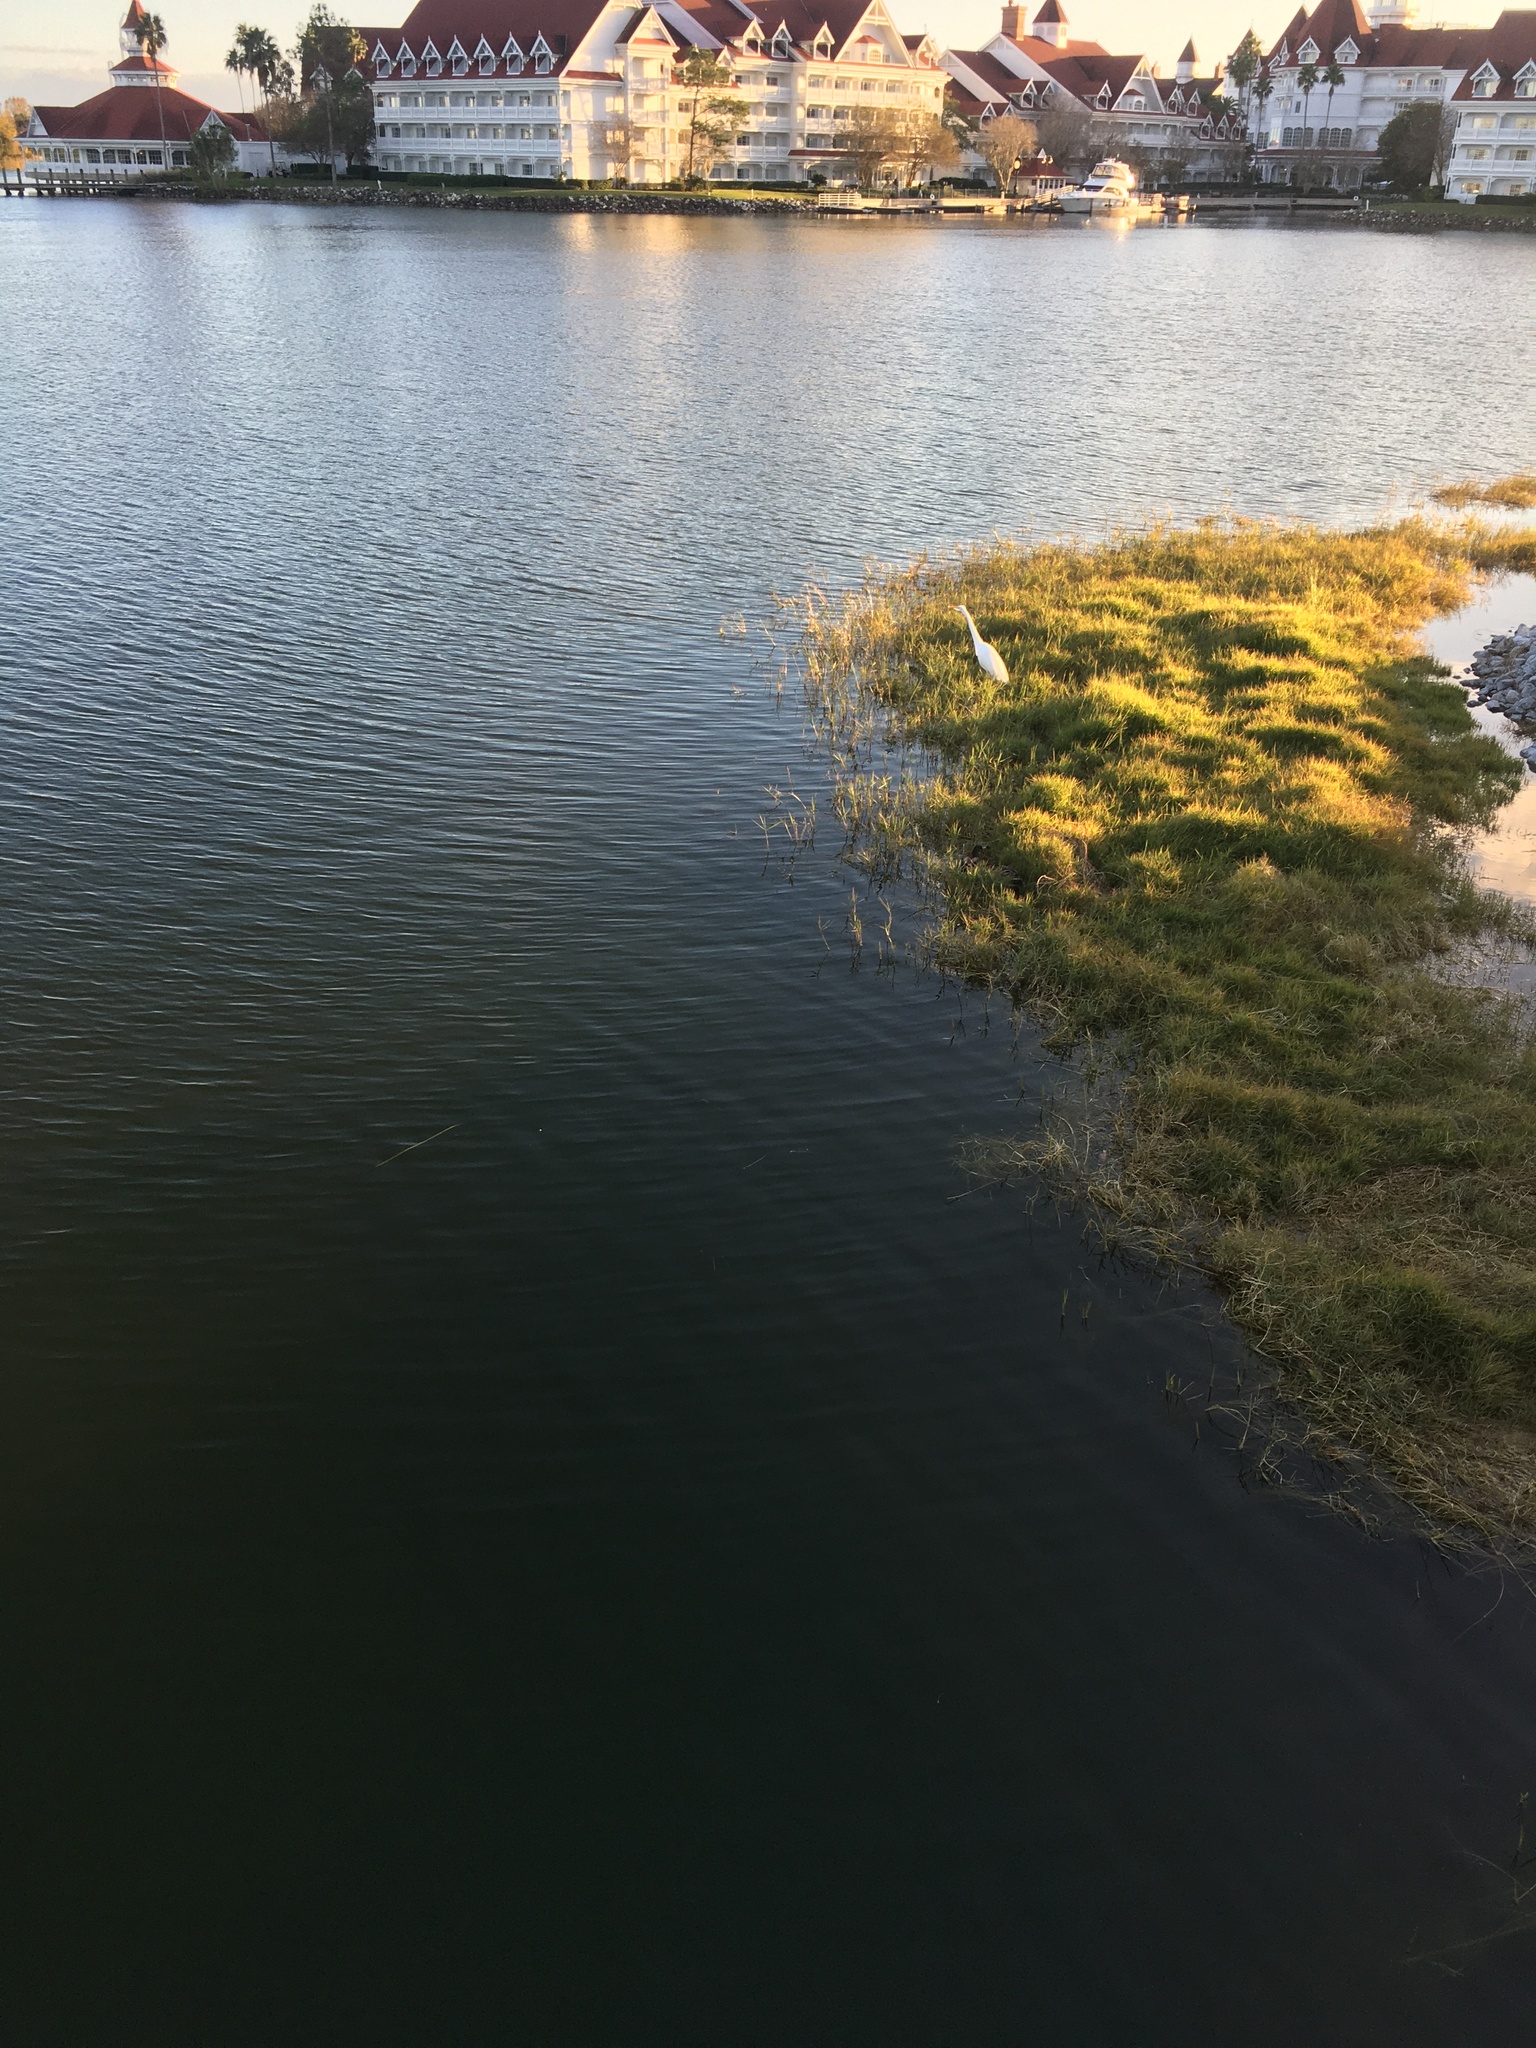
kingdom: Animalia
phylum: Chordata
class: Aves
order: Pelecaniformes
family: Ardeidae
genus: Ardea
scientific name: Ardea alba
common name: Great egret
